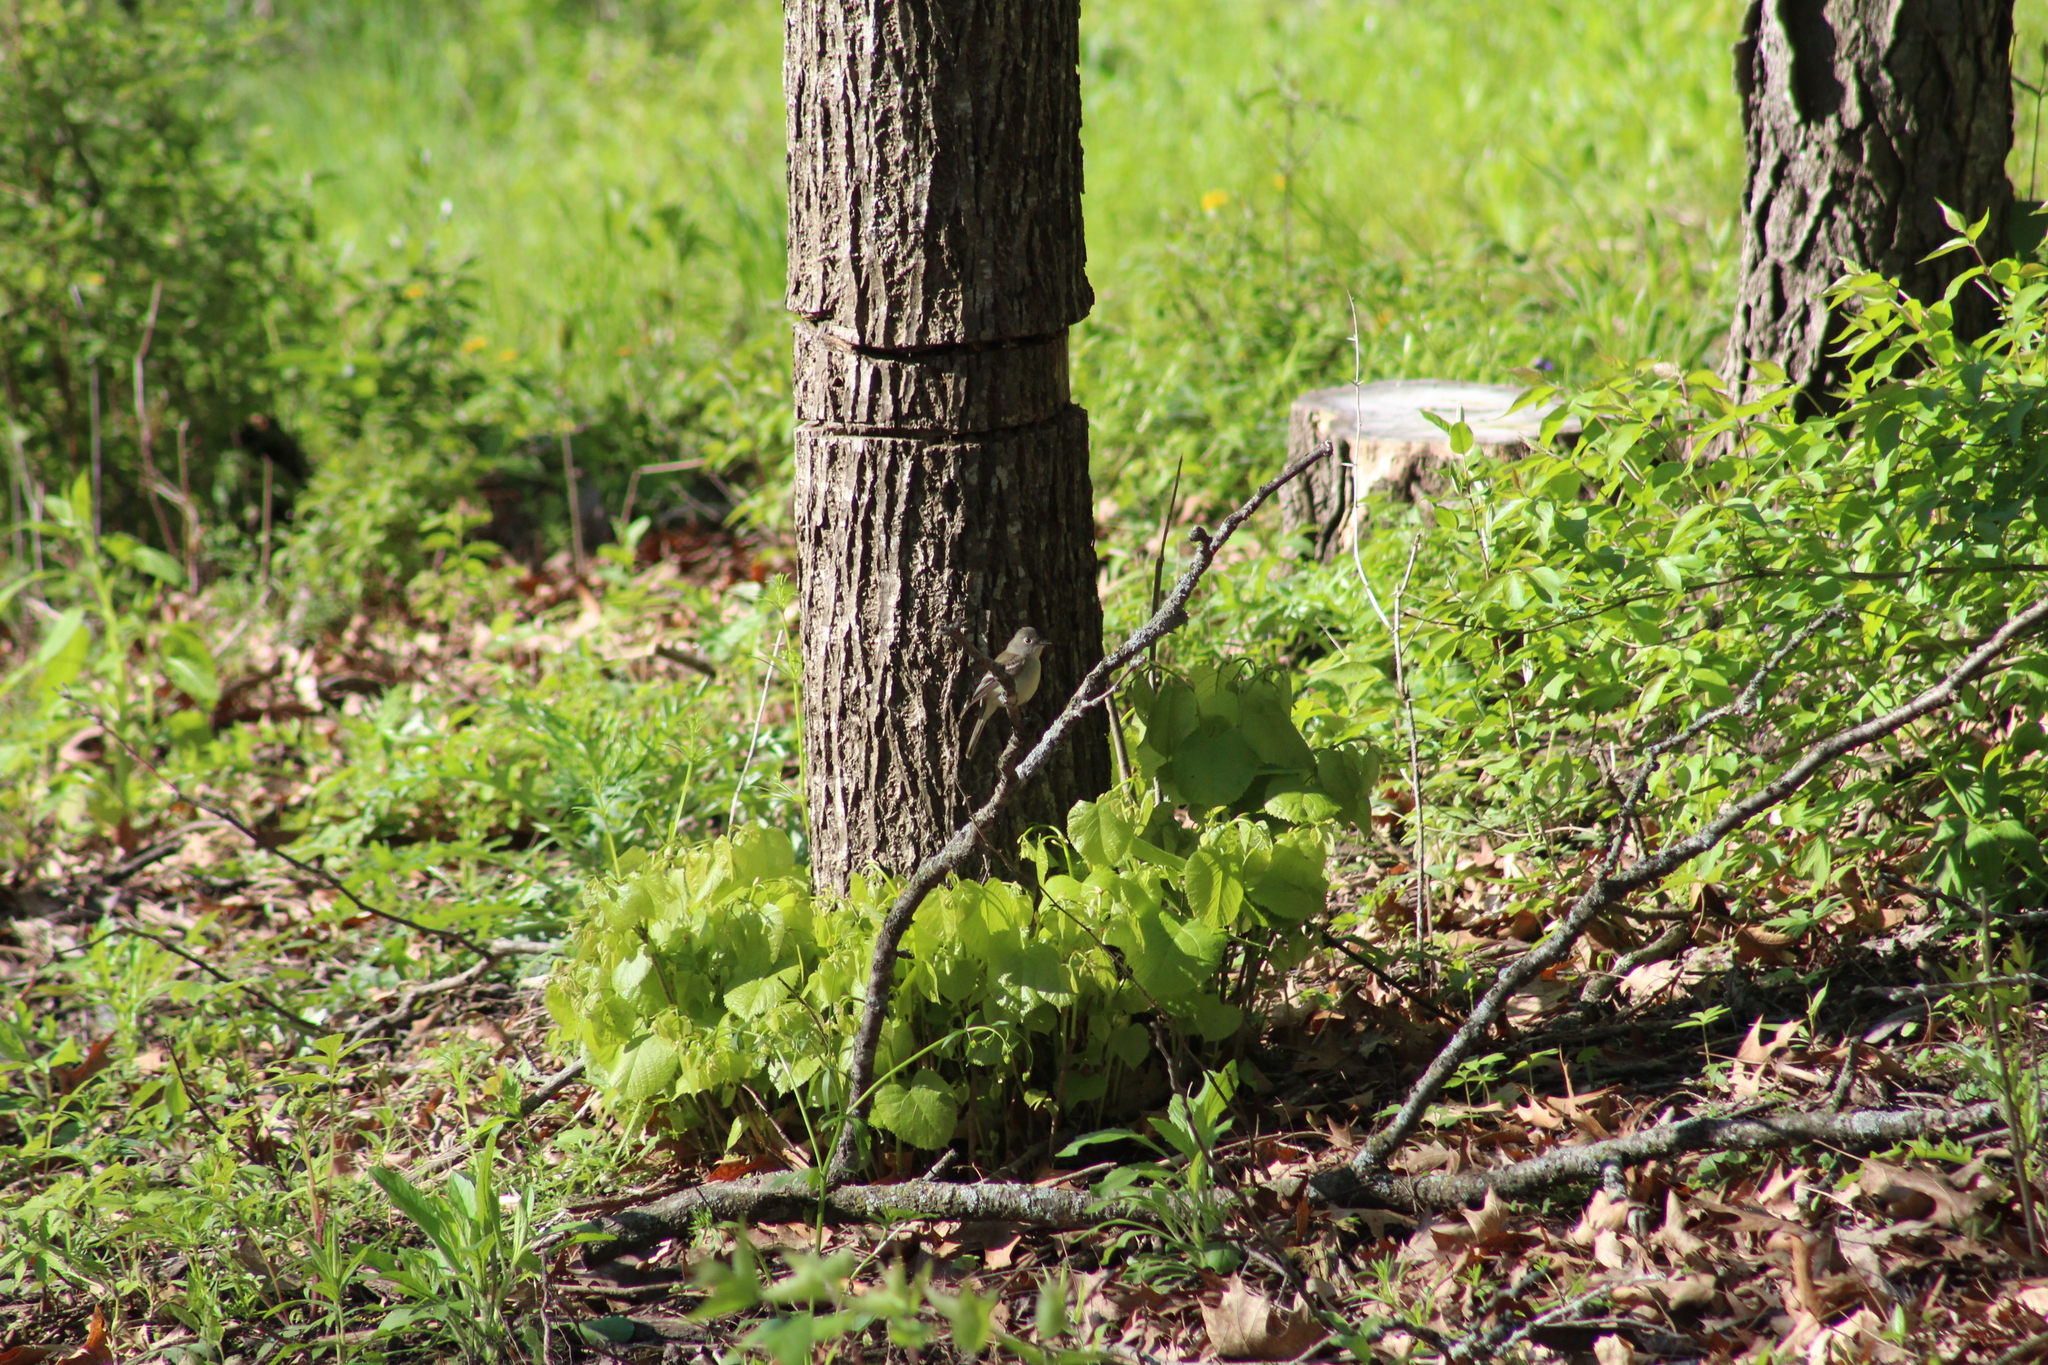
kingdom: Animalia
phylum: Chordata
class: Aves
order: Passeriformes
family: Tyrannidae
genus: Empidonax
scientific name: Empidonax minimus
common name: Least flycatcher
